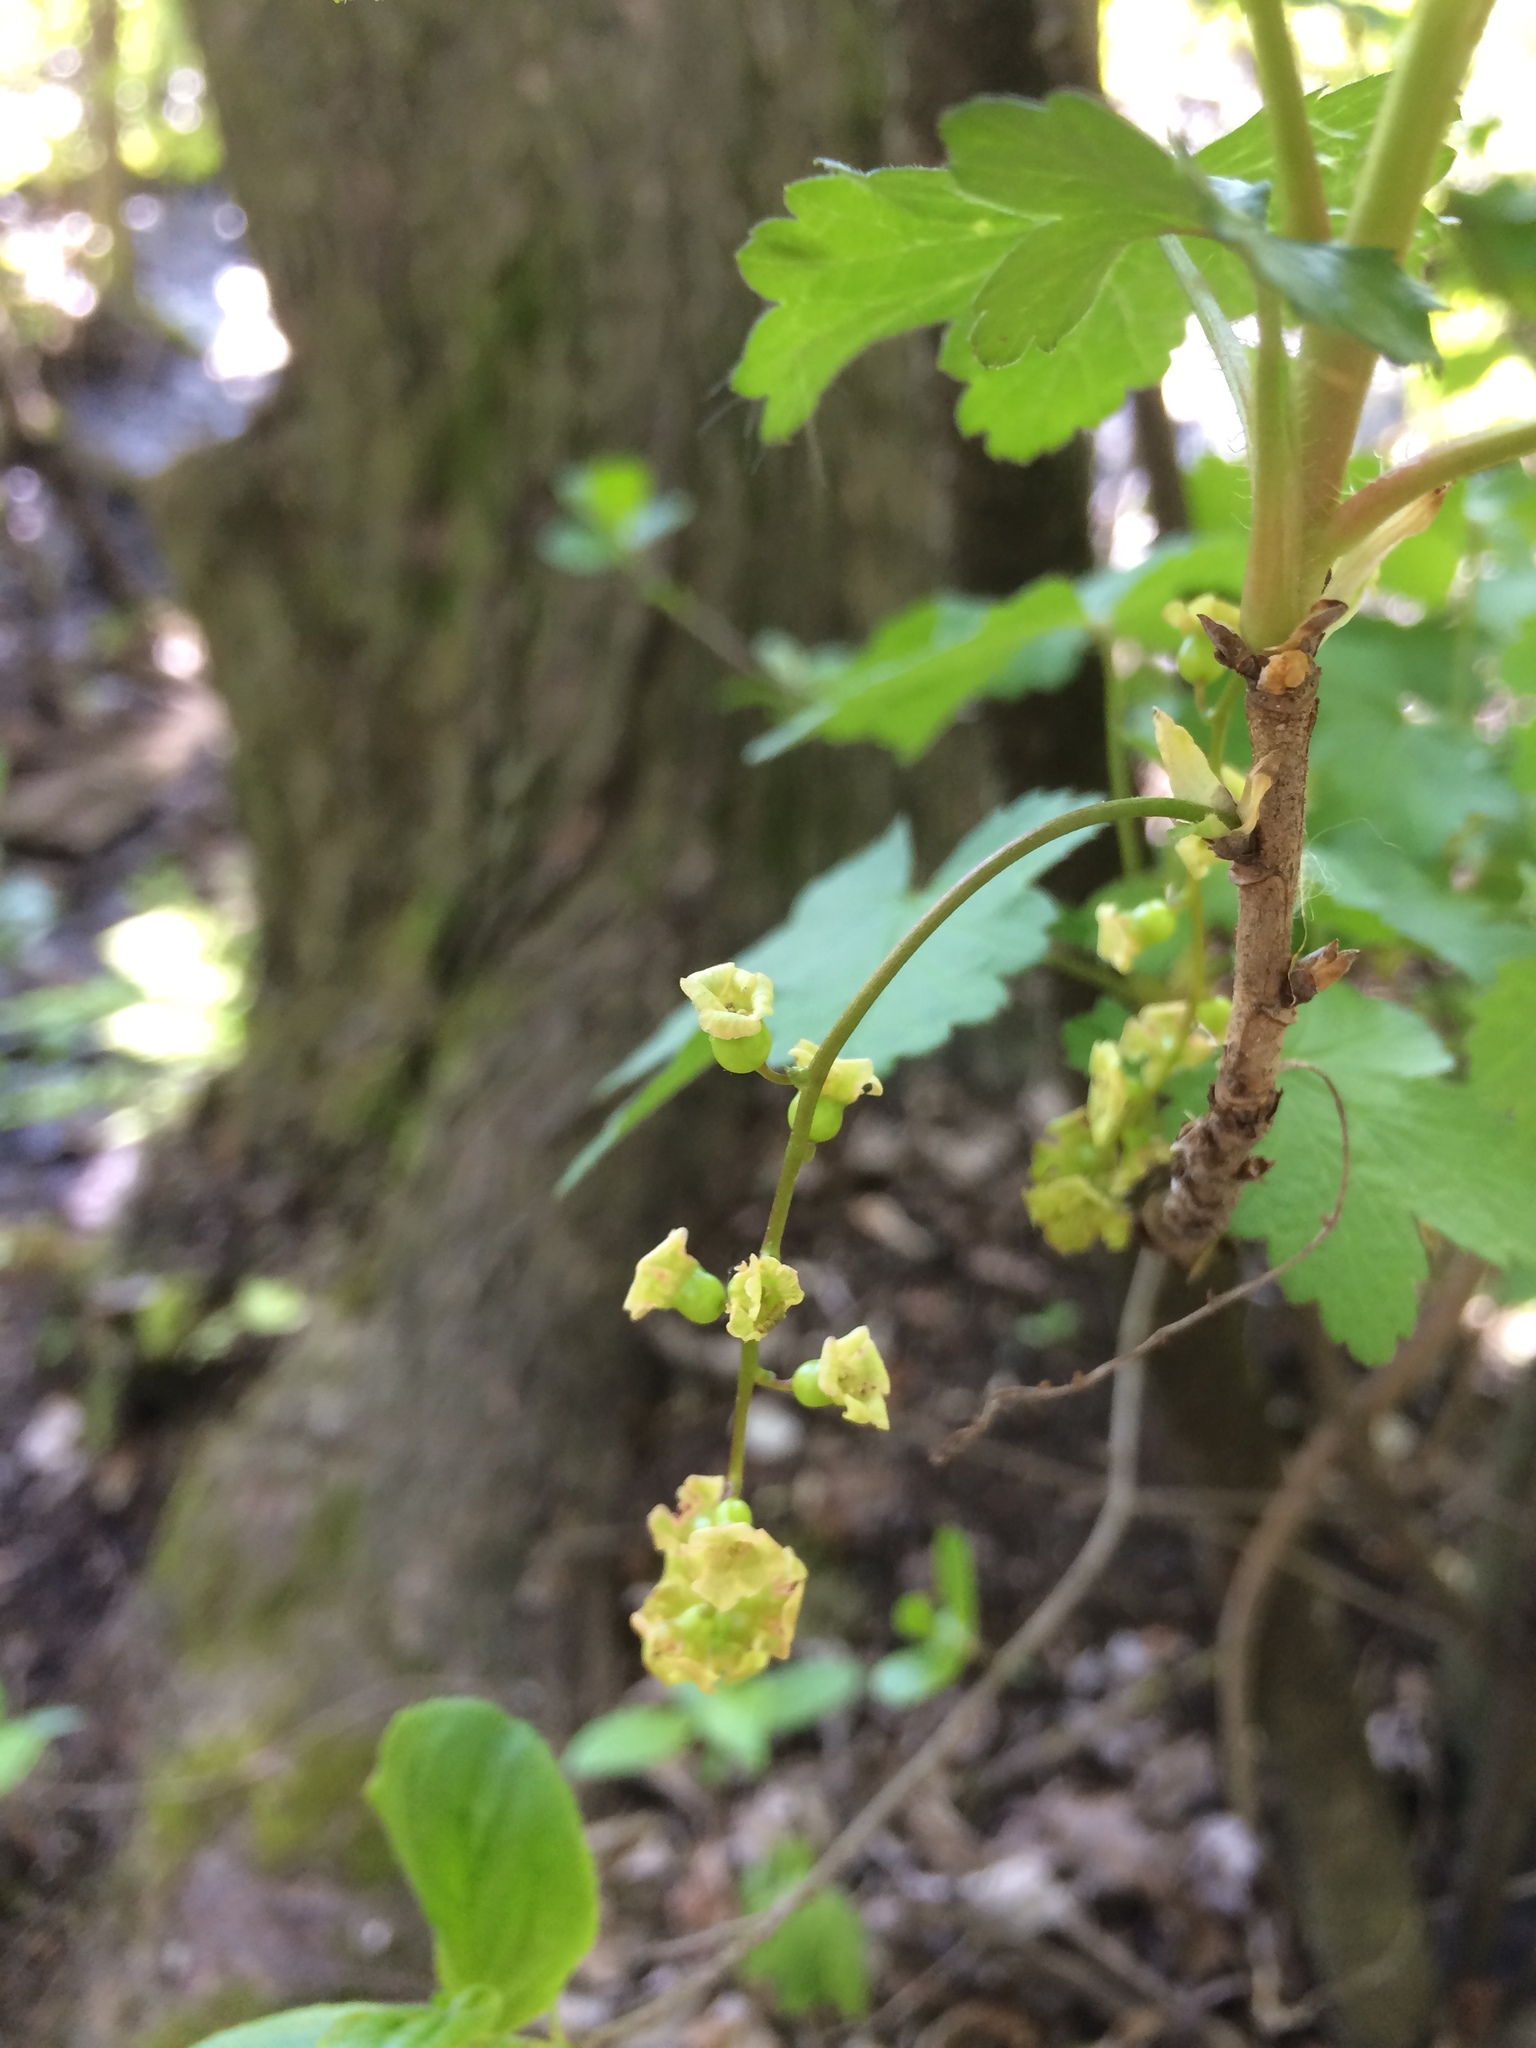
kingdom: Plantae
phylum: Tracheophyta
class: Magnoliopsida
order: Saxifragales
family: Grossulariaceae
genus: Ribes
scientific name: Ribes rubrum
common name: Red currant
